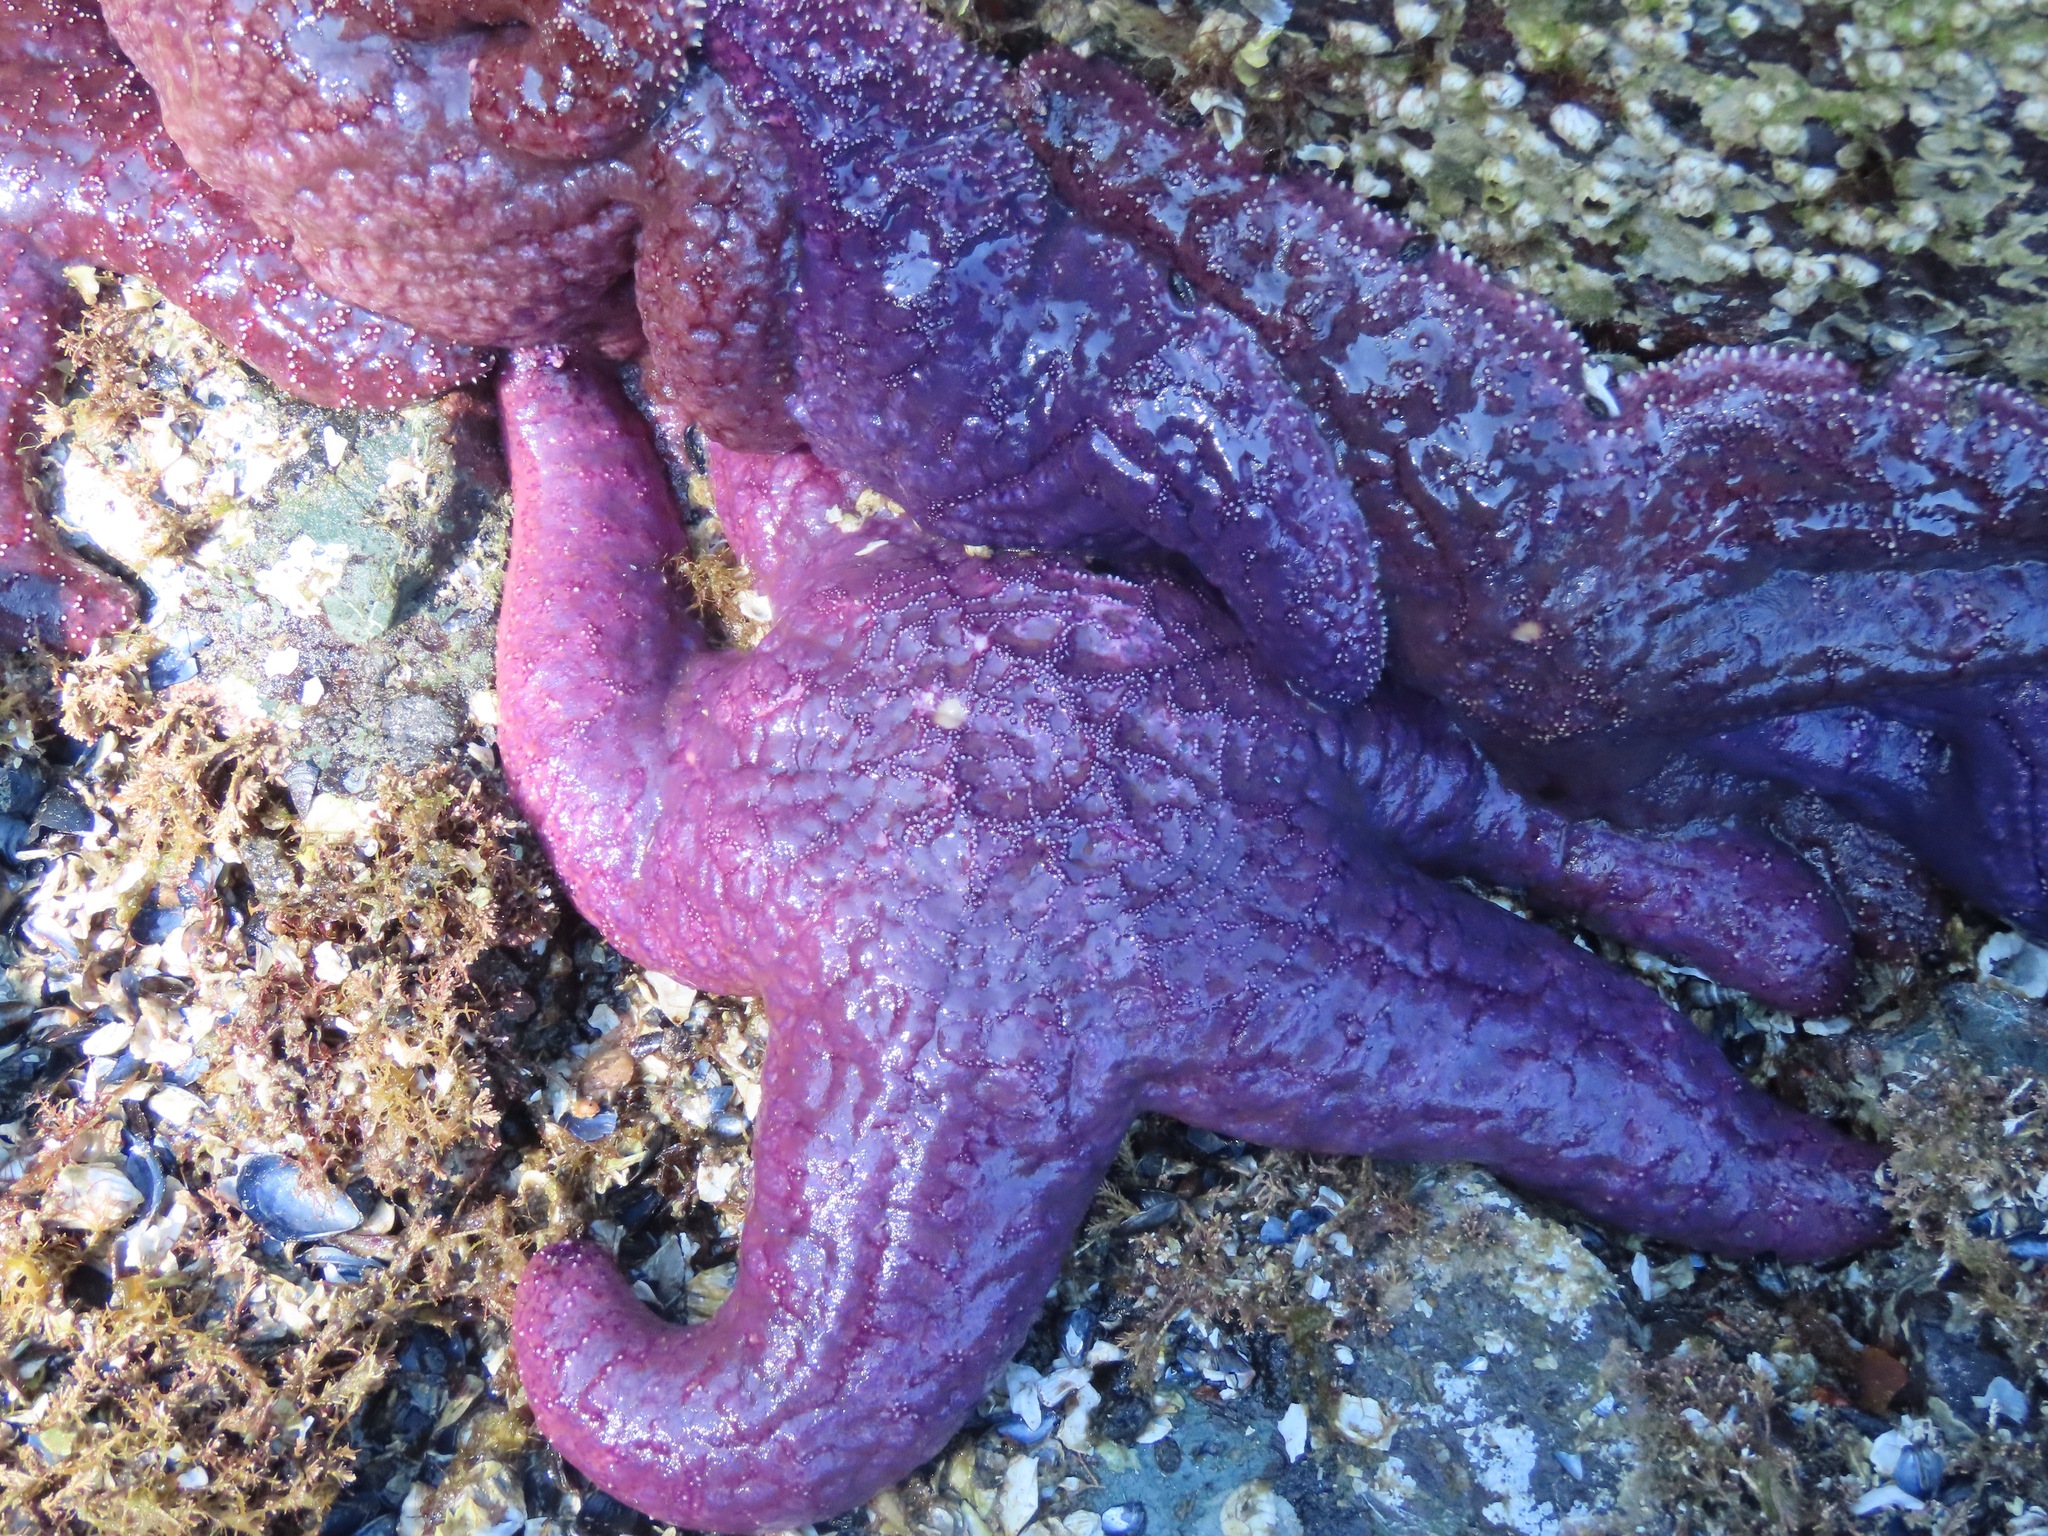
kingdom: Animalia
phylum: Echinodermata
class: Asteroidea
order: Forcipulatida
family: Asteriidae
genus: Pisaster
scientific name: Pisaster ochraceus
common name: Ochre stars
